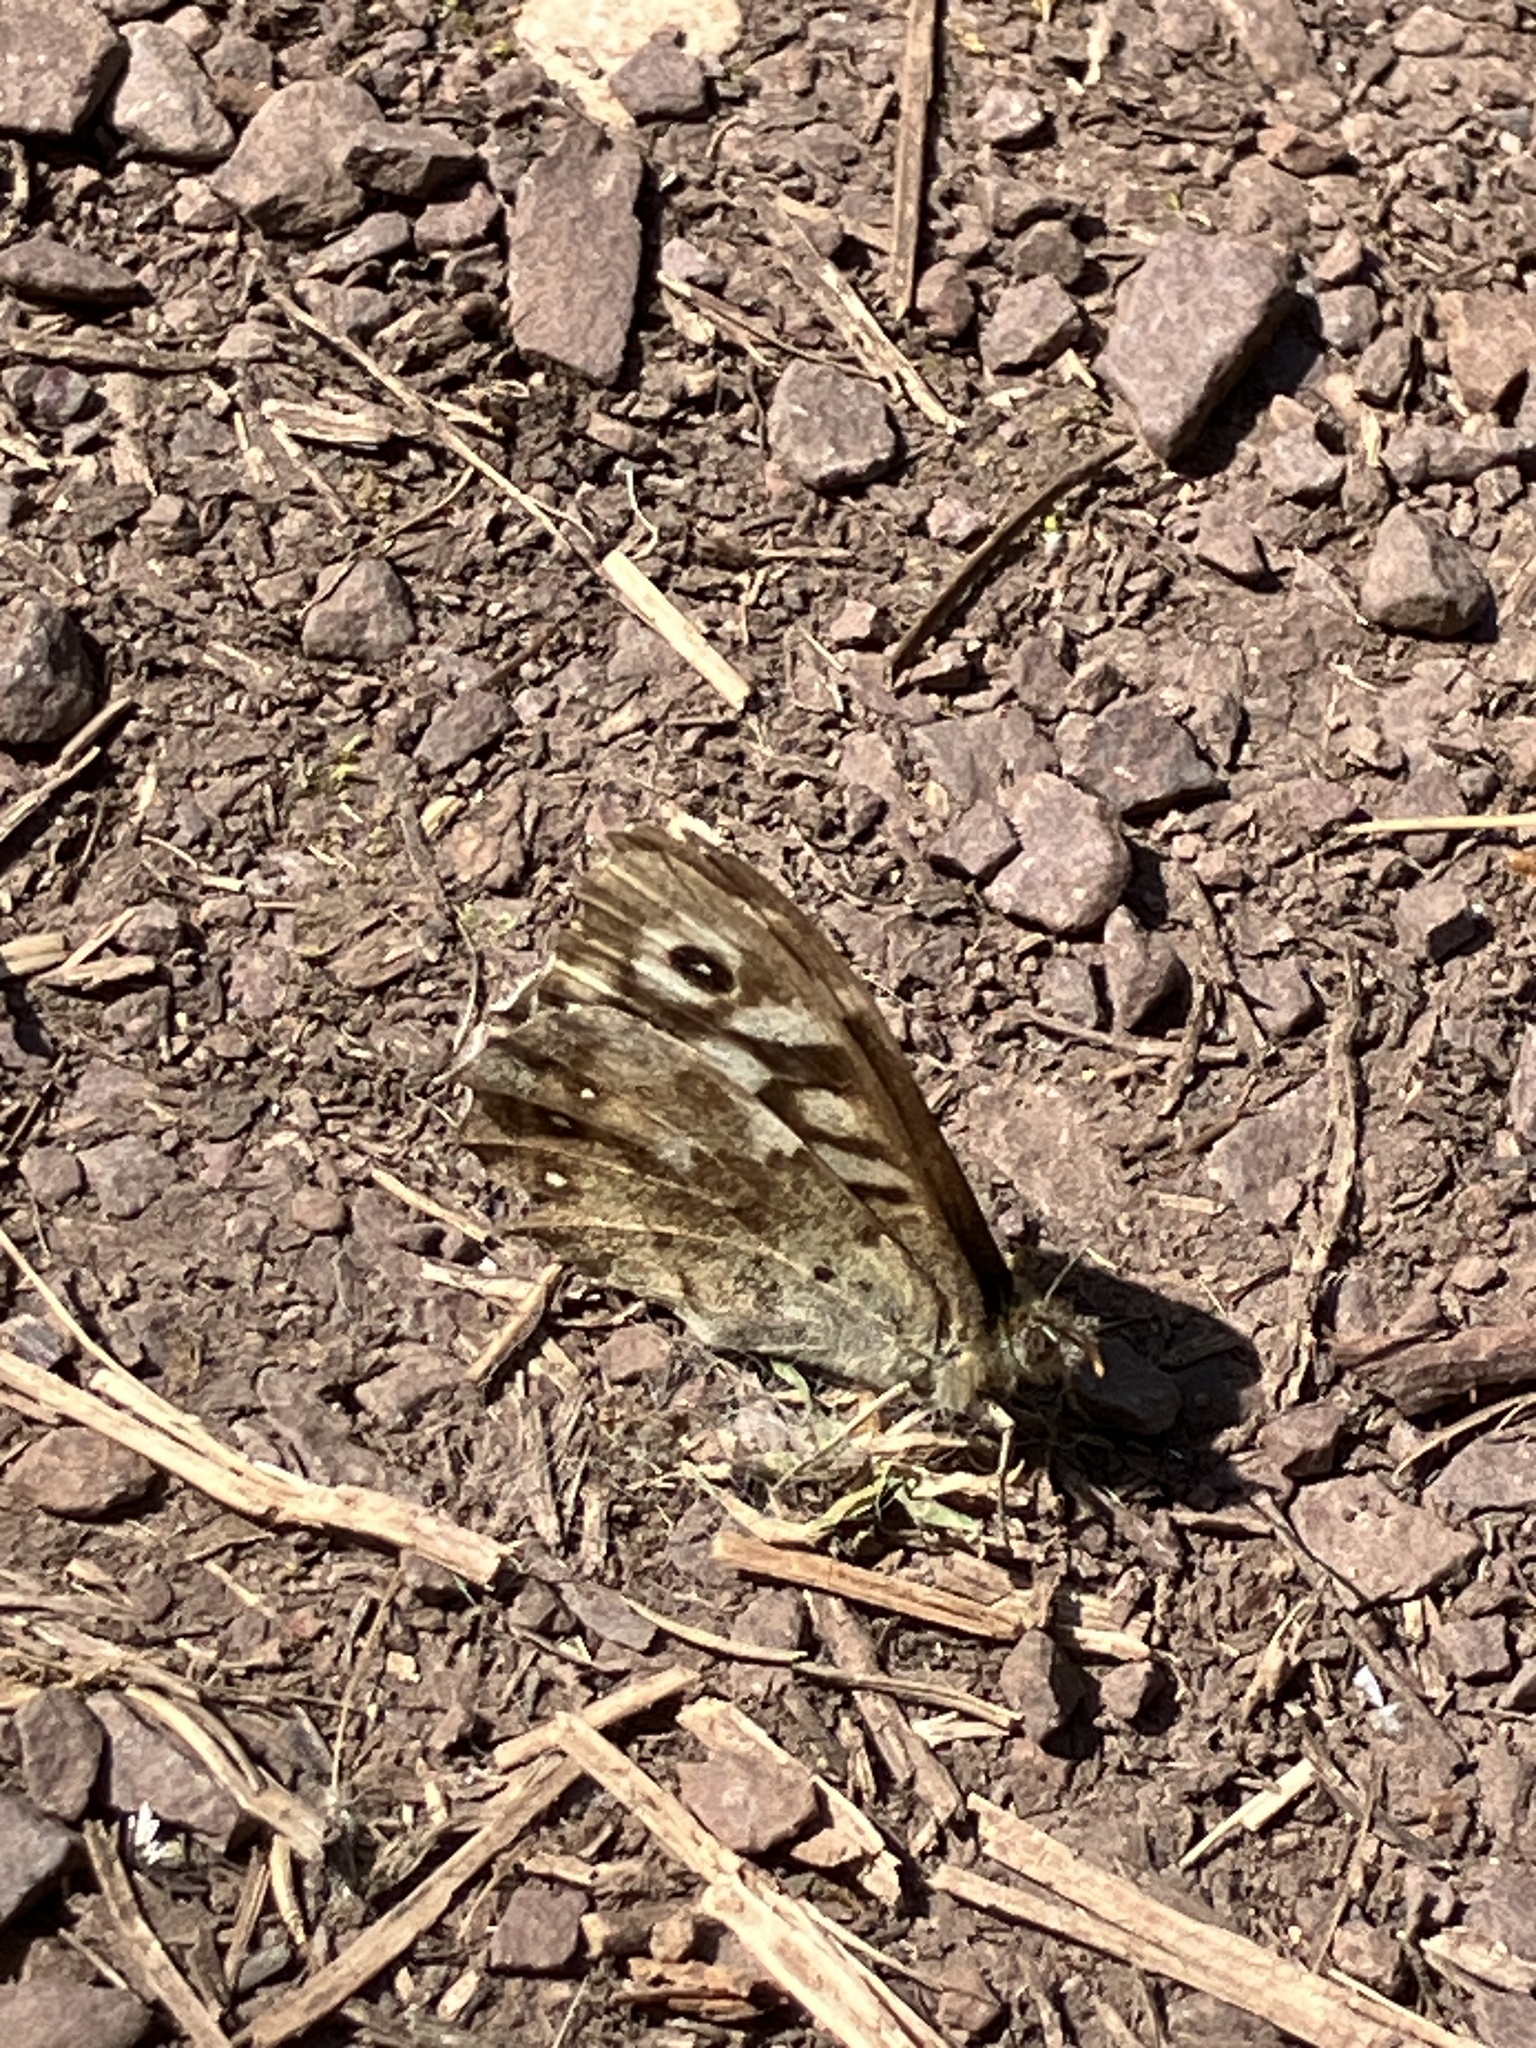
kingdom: Animalia
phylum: Arthropoda
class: Insecta
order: Lepidoptera
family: Nymphalidae
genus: Pararge
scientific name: Pararge aegeria
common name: Speckled wood
